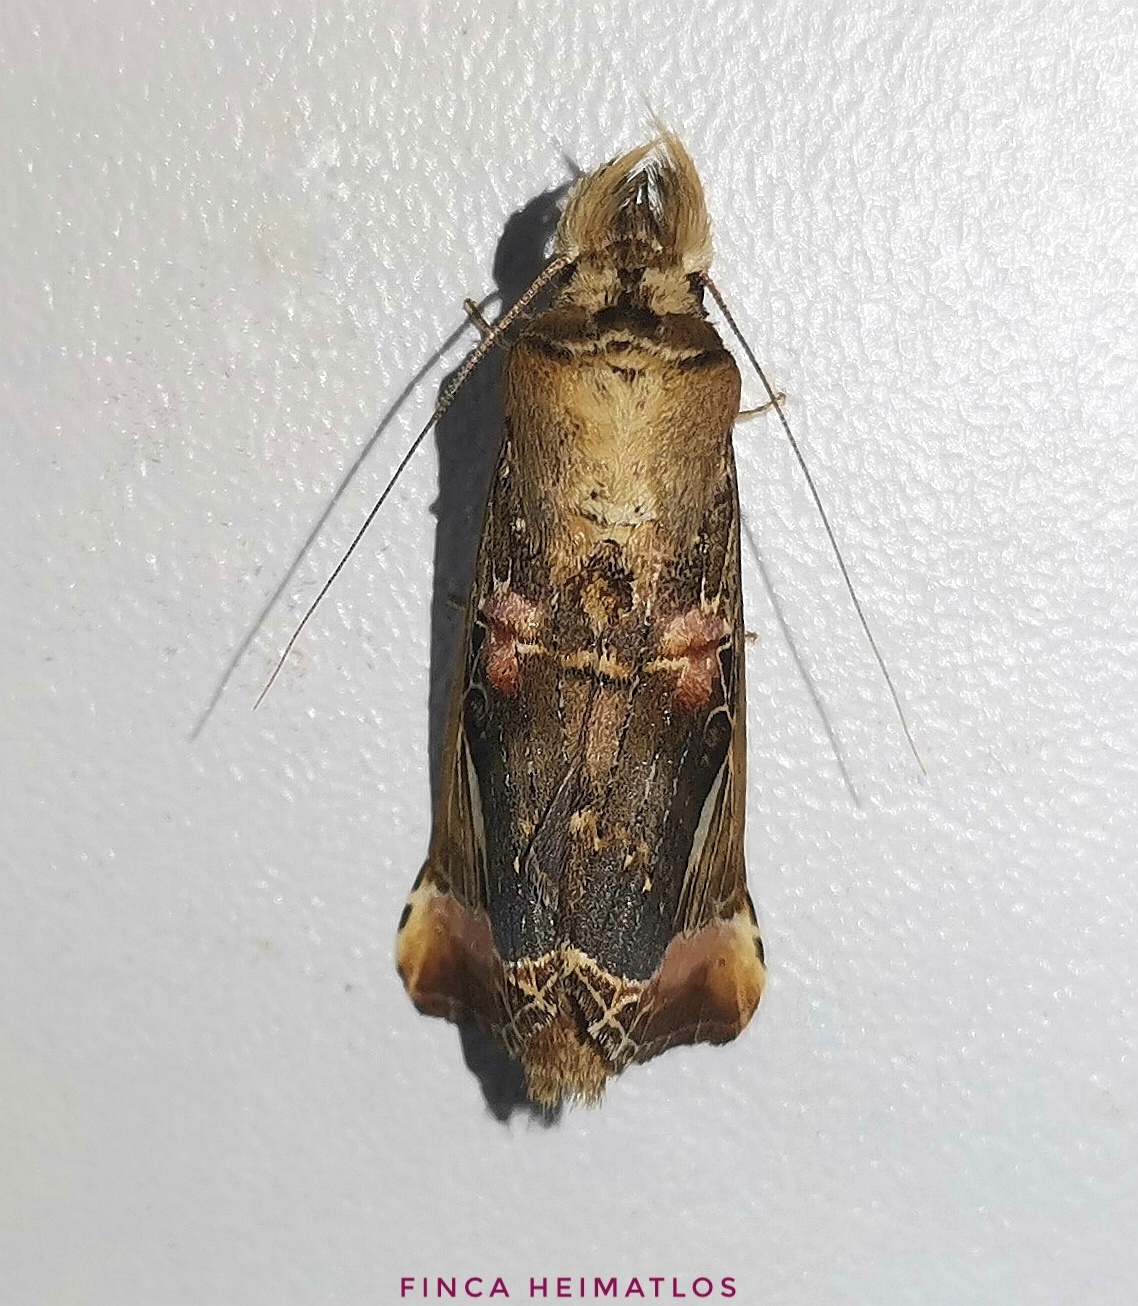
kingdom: Animalia
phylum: Arthropoda
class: Insecta
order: Lepidoptera
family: Notodontidae
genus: Calledema
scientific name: Calledema plusioides
